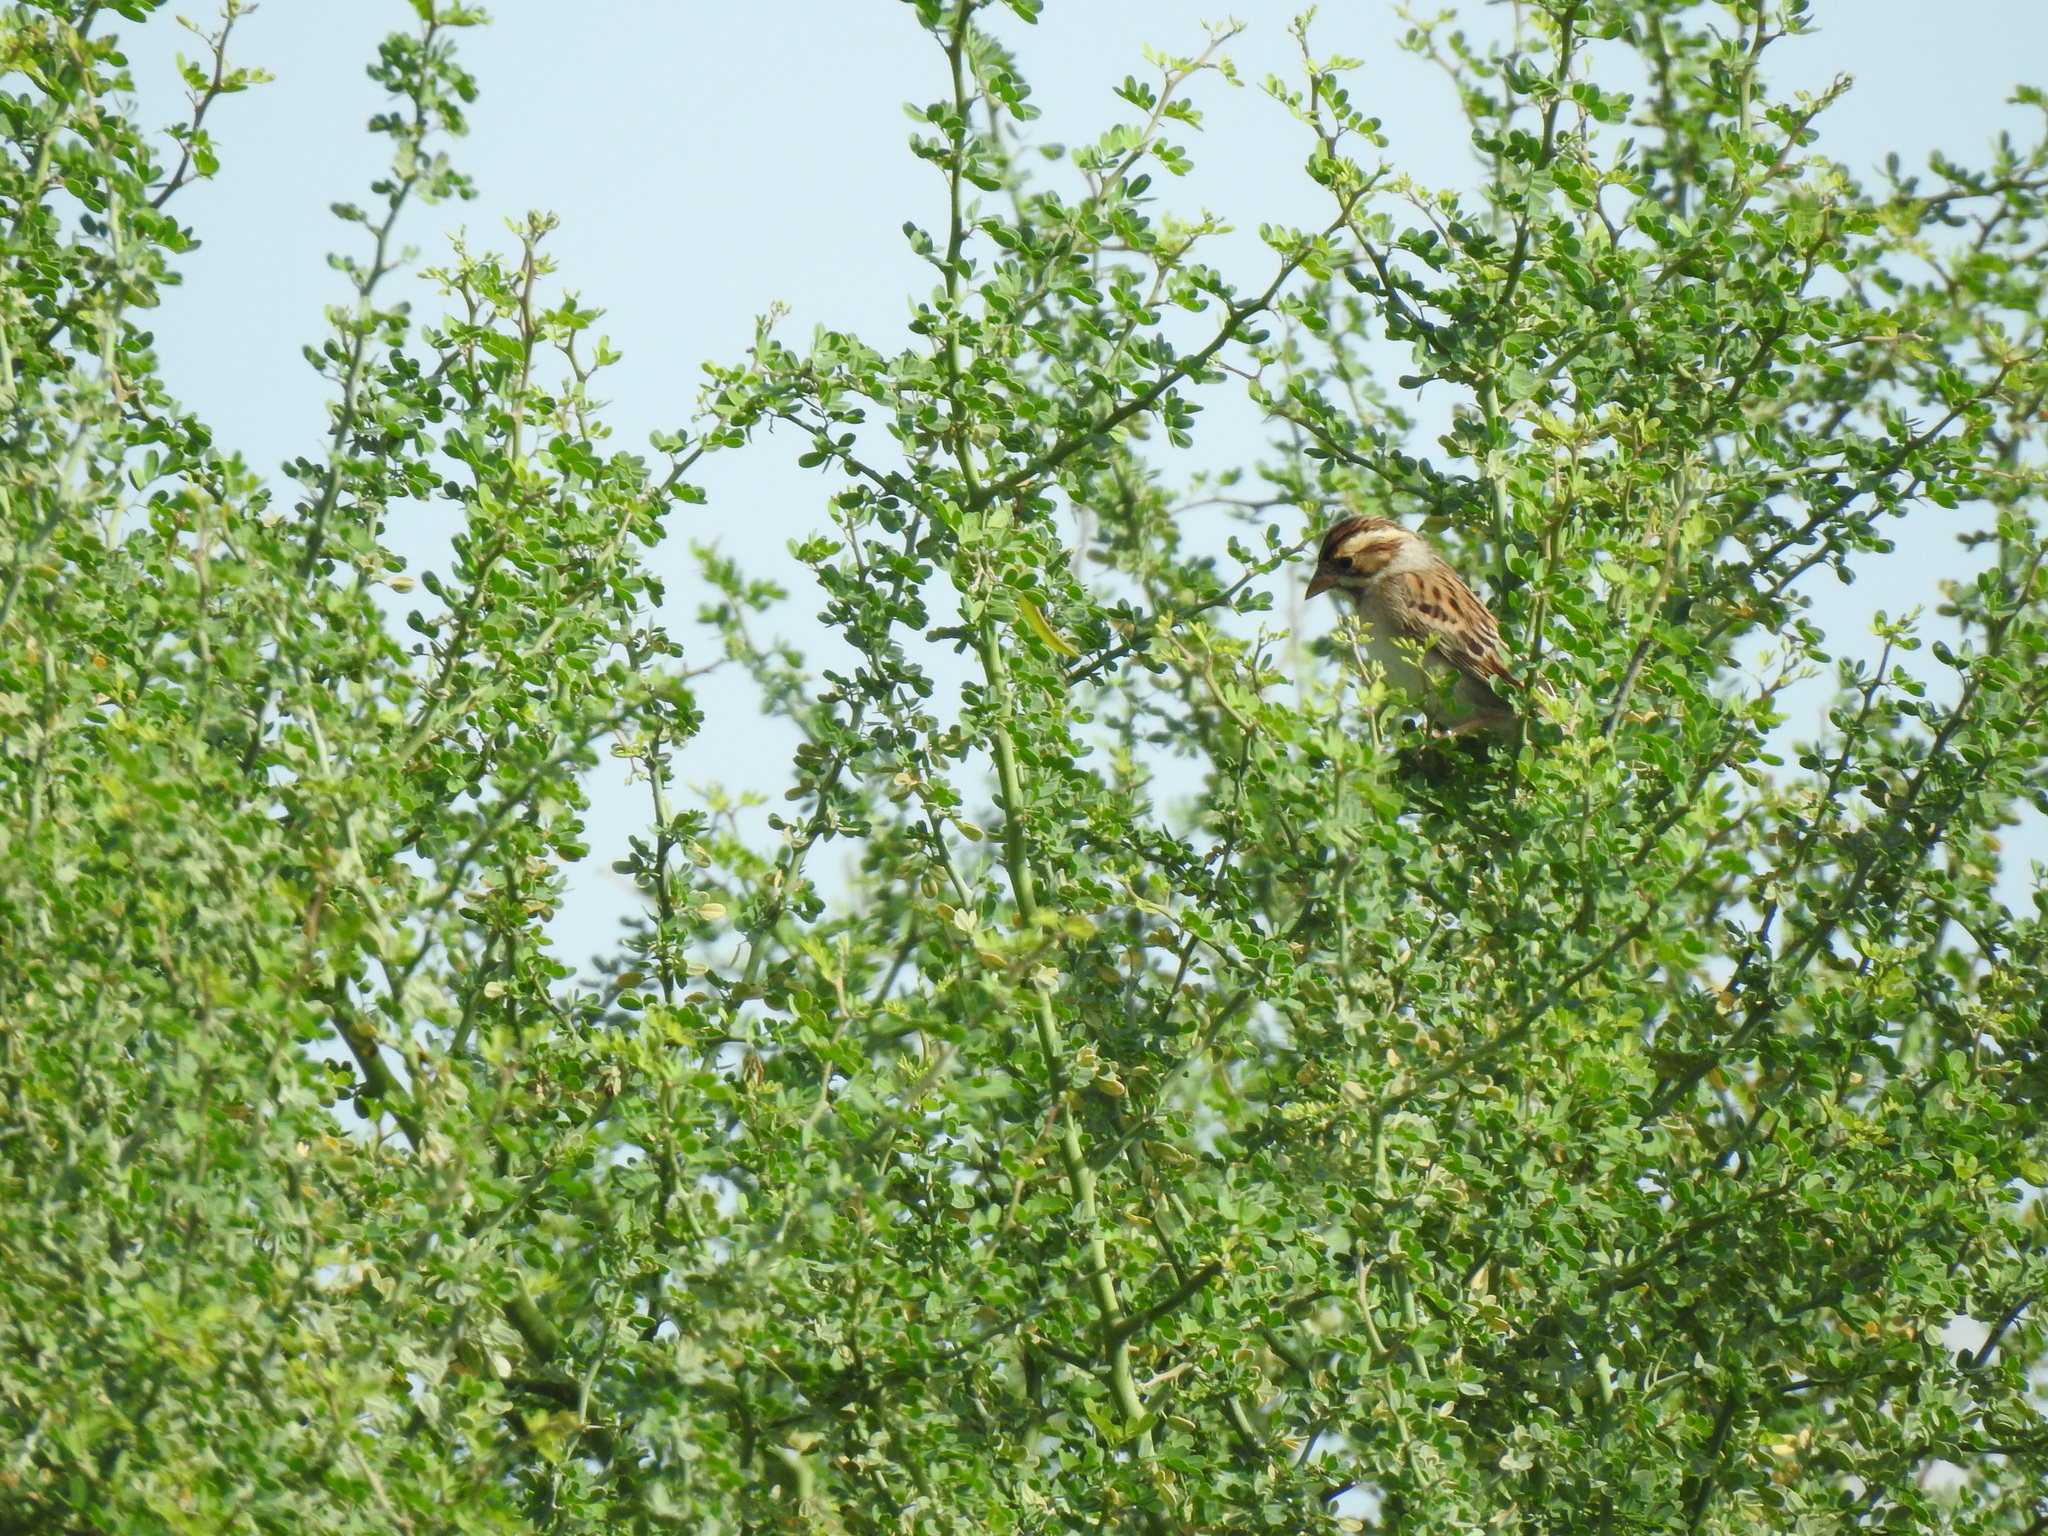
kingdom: Animalia
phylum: Chordata
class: Aves
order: Passeriformes
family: Passerellidae
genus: Spizella
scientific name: Spizella pallida
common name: Clay-colored sparrow
